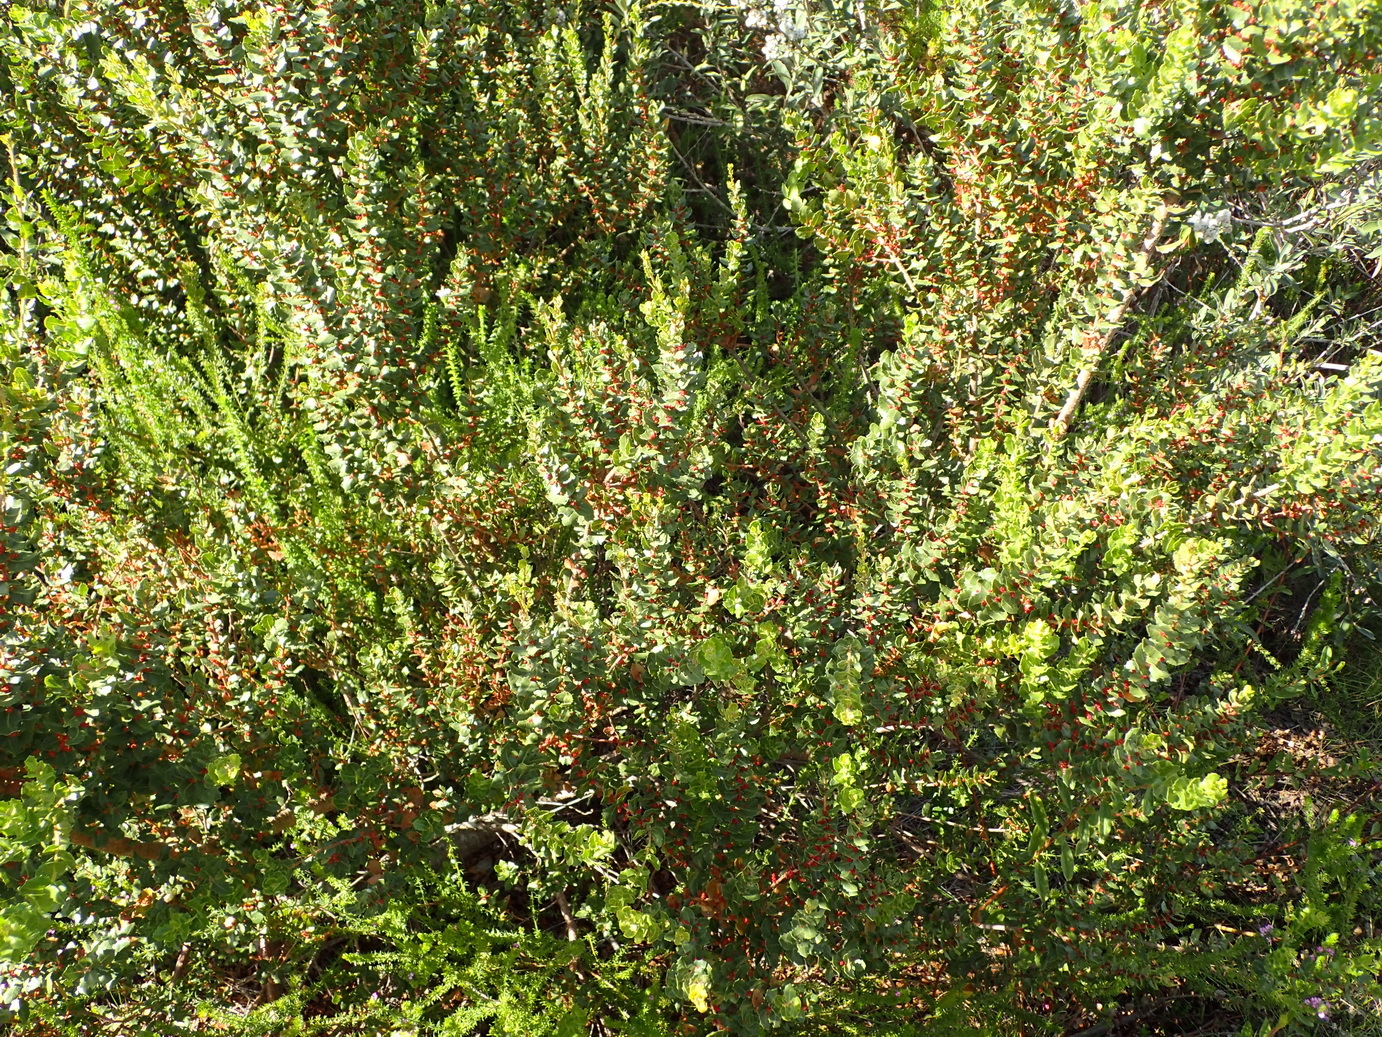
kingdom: Plantae
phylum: Tracheophyta
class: Magnoliopsida
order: Fagales
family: Myricaceae
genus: Morella
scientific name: Morella cordifolia
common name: Waxberry
